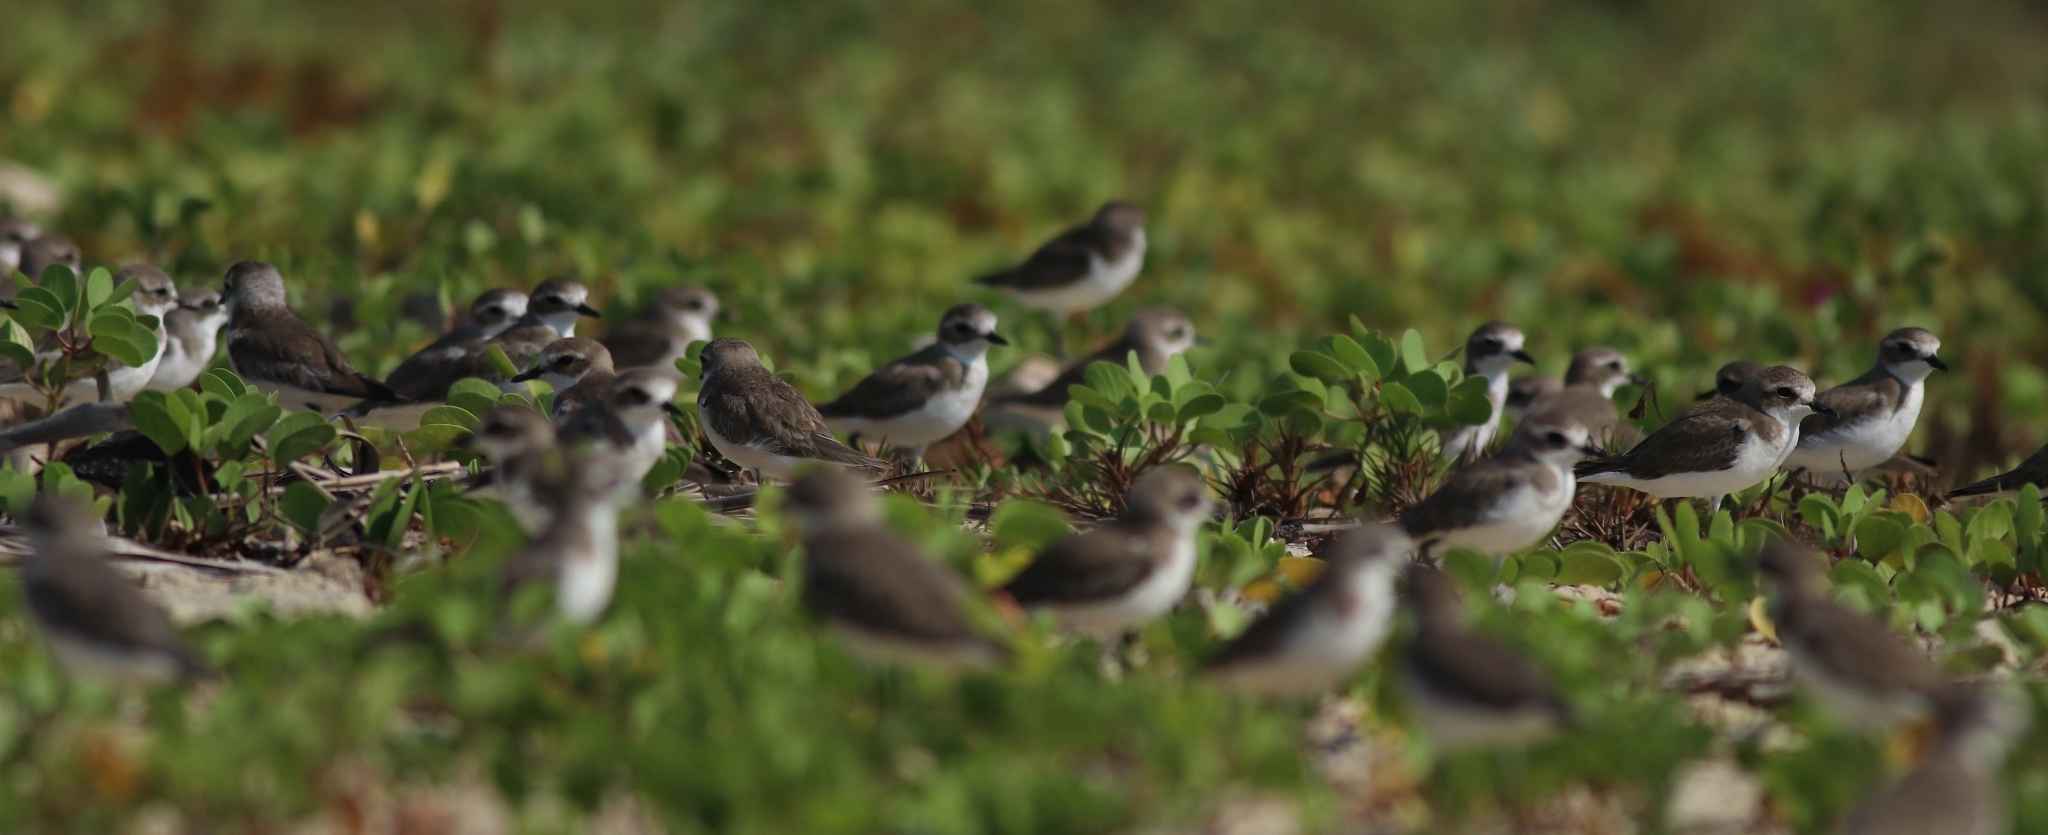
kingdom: Animalia
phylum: Chordata
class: Aves
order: Charadriiformes
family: Charadriidae
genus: Anarhynchus
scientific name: Anarhynchus
